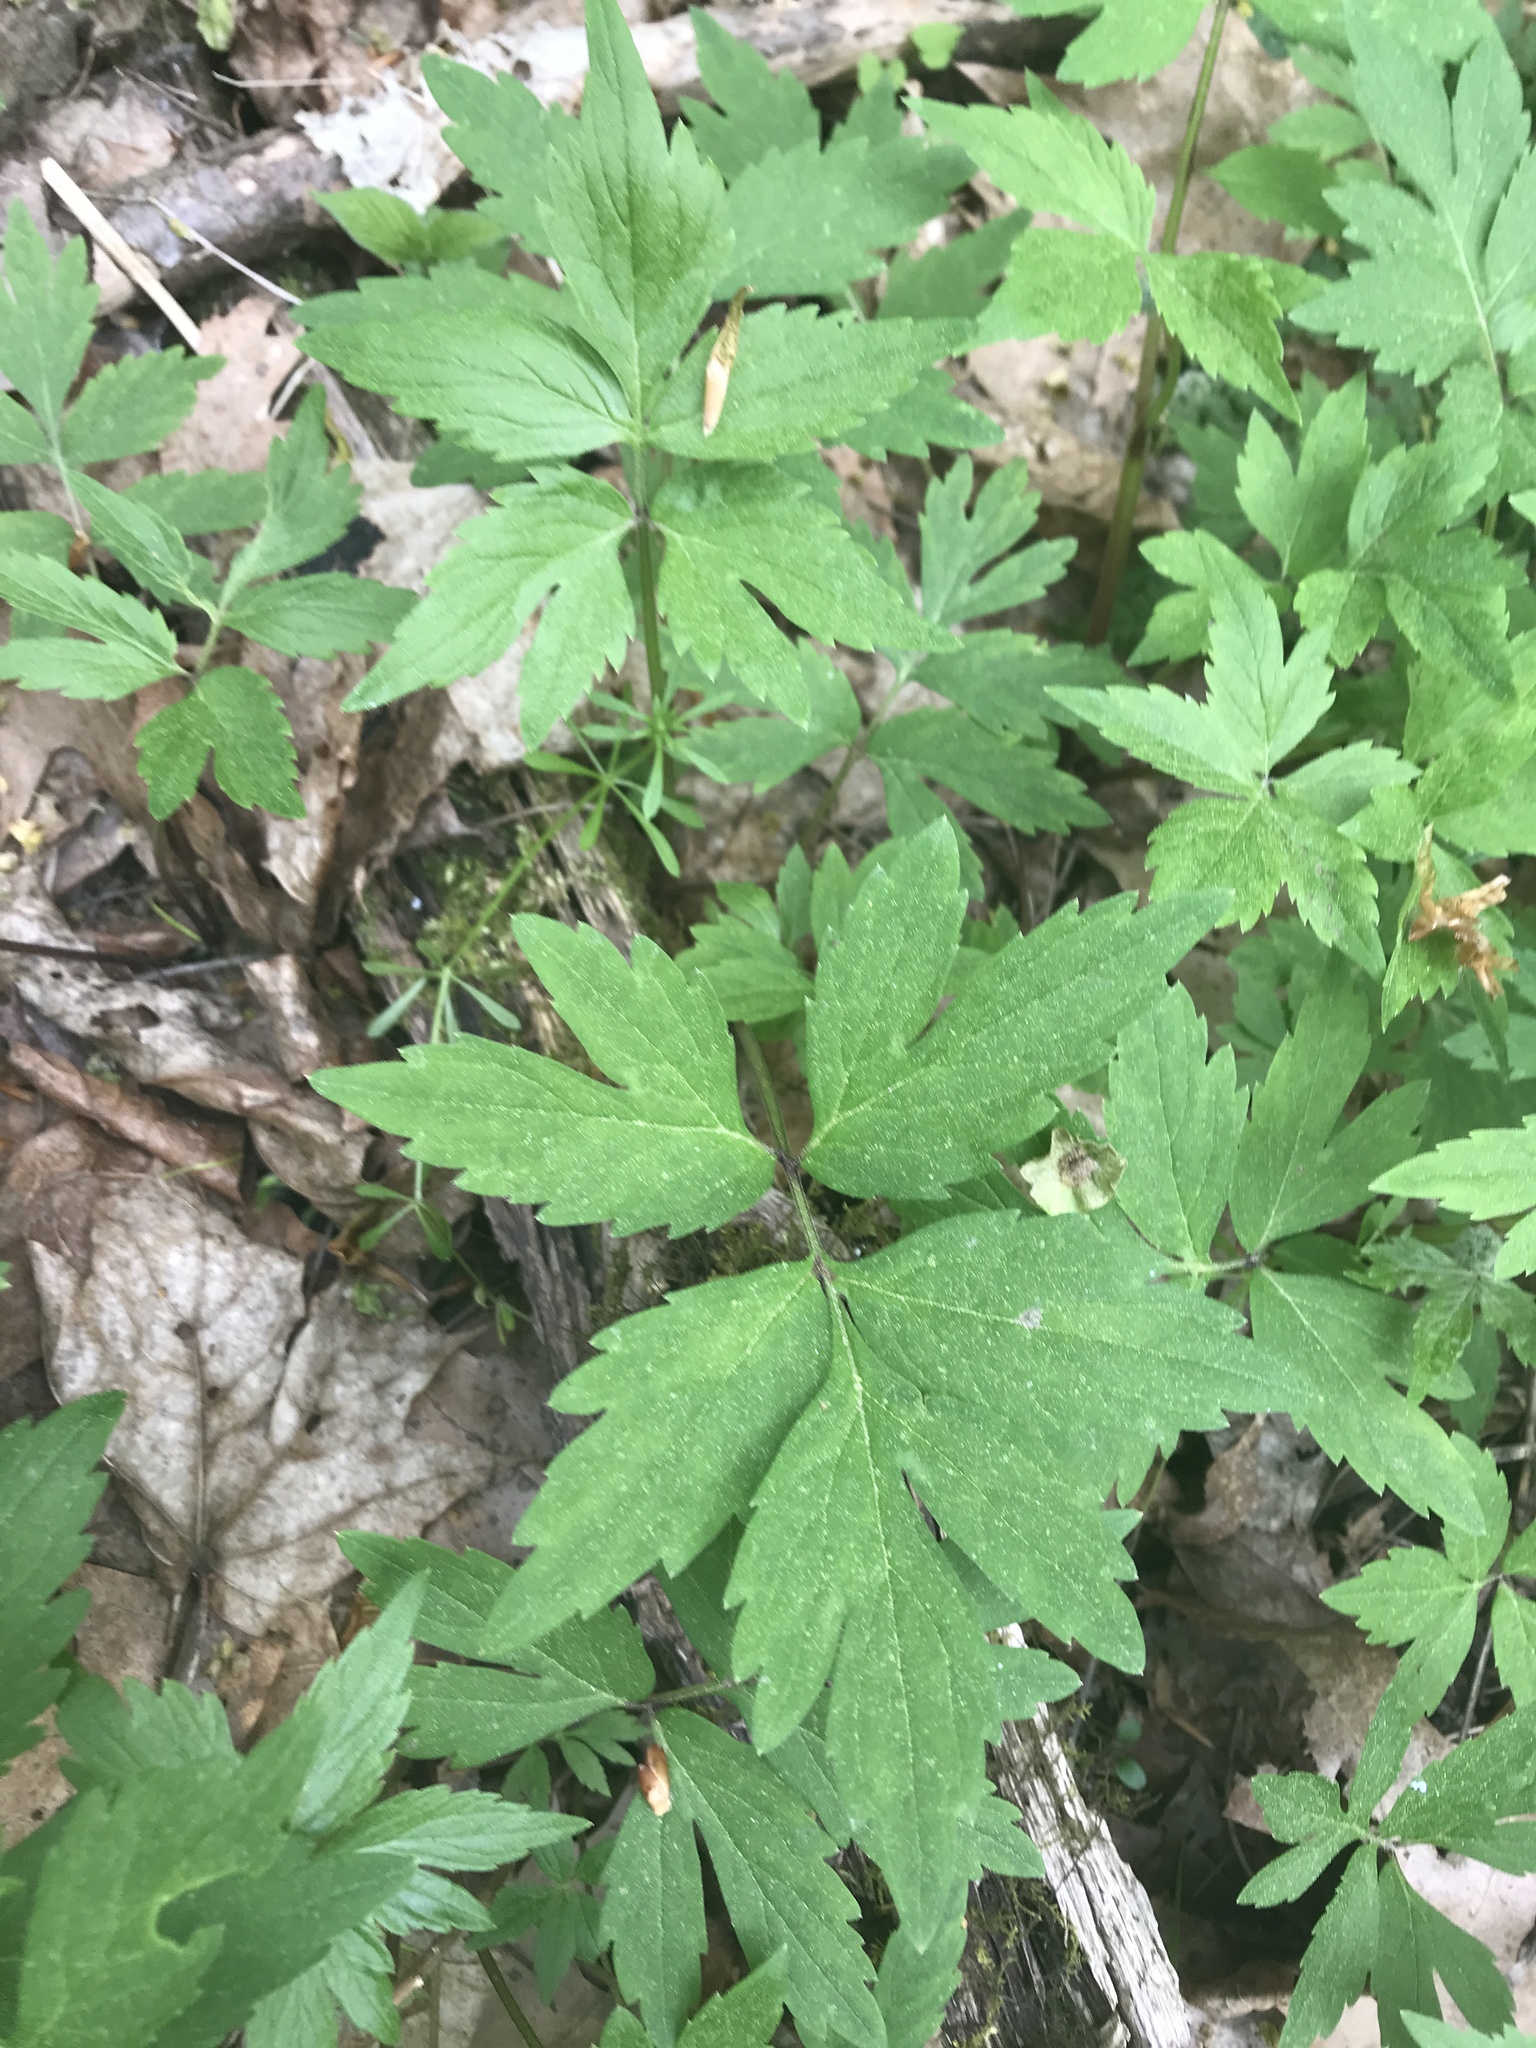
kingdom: Plantae
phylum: Tracheophyta
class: Magnoliopsida
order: Boraginales
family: Hydrophyllaceae
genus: Hydrophyllum
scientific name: Hydrophyllum virginianum
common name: Virginia waterleaf
